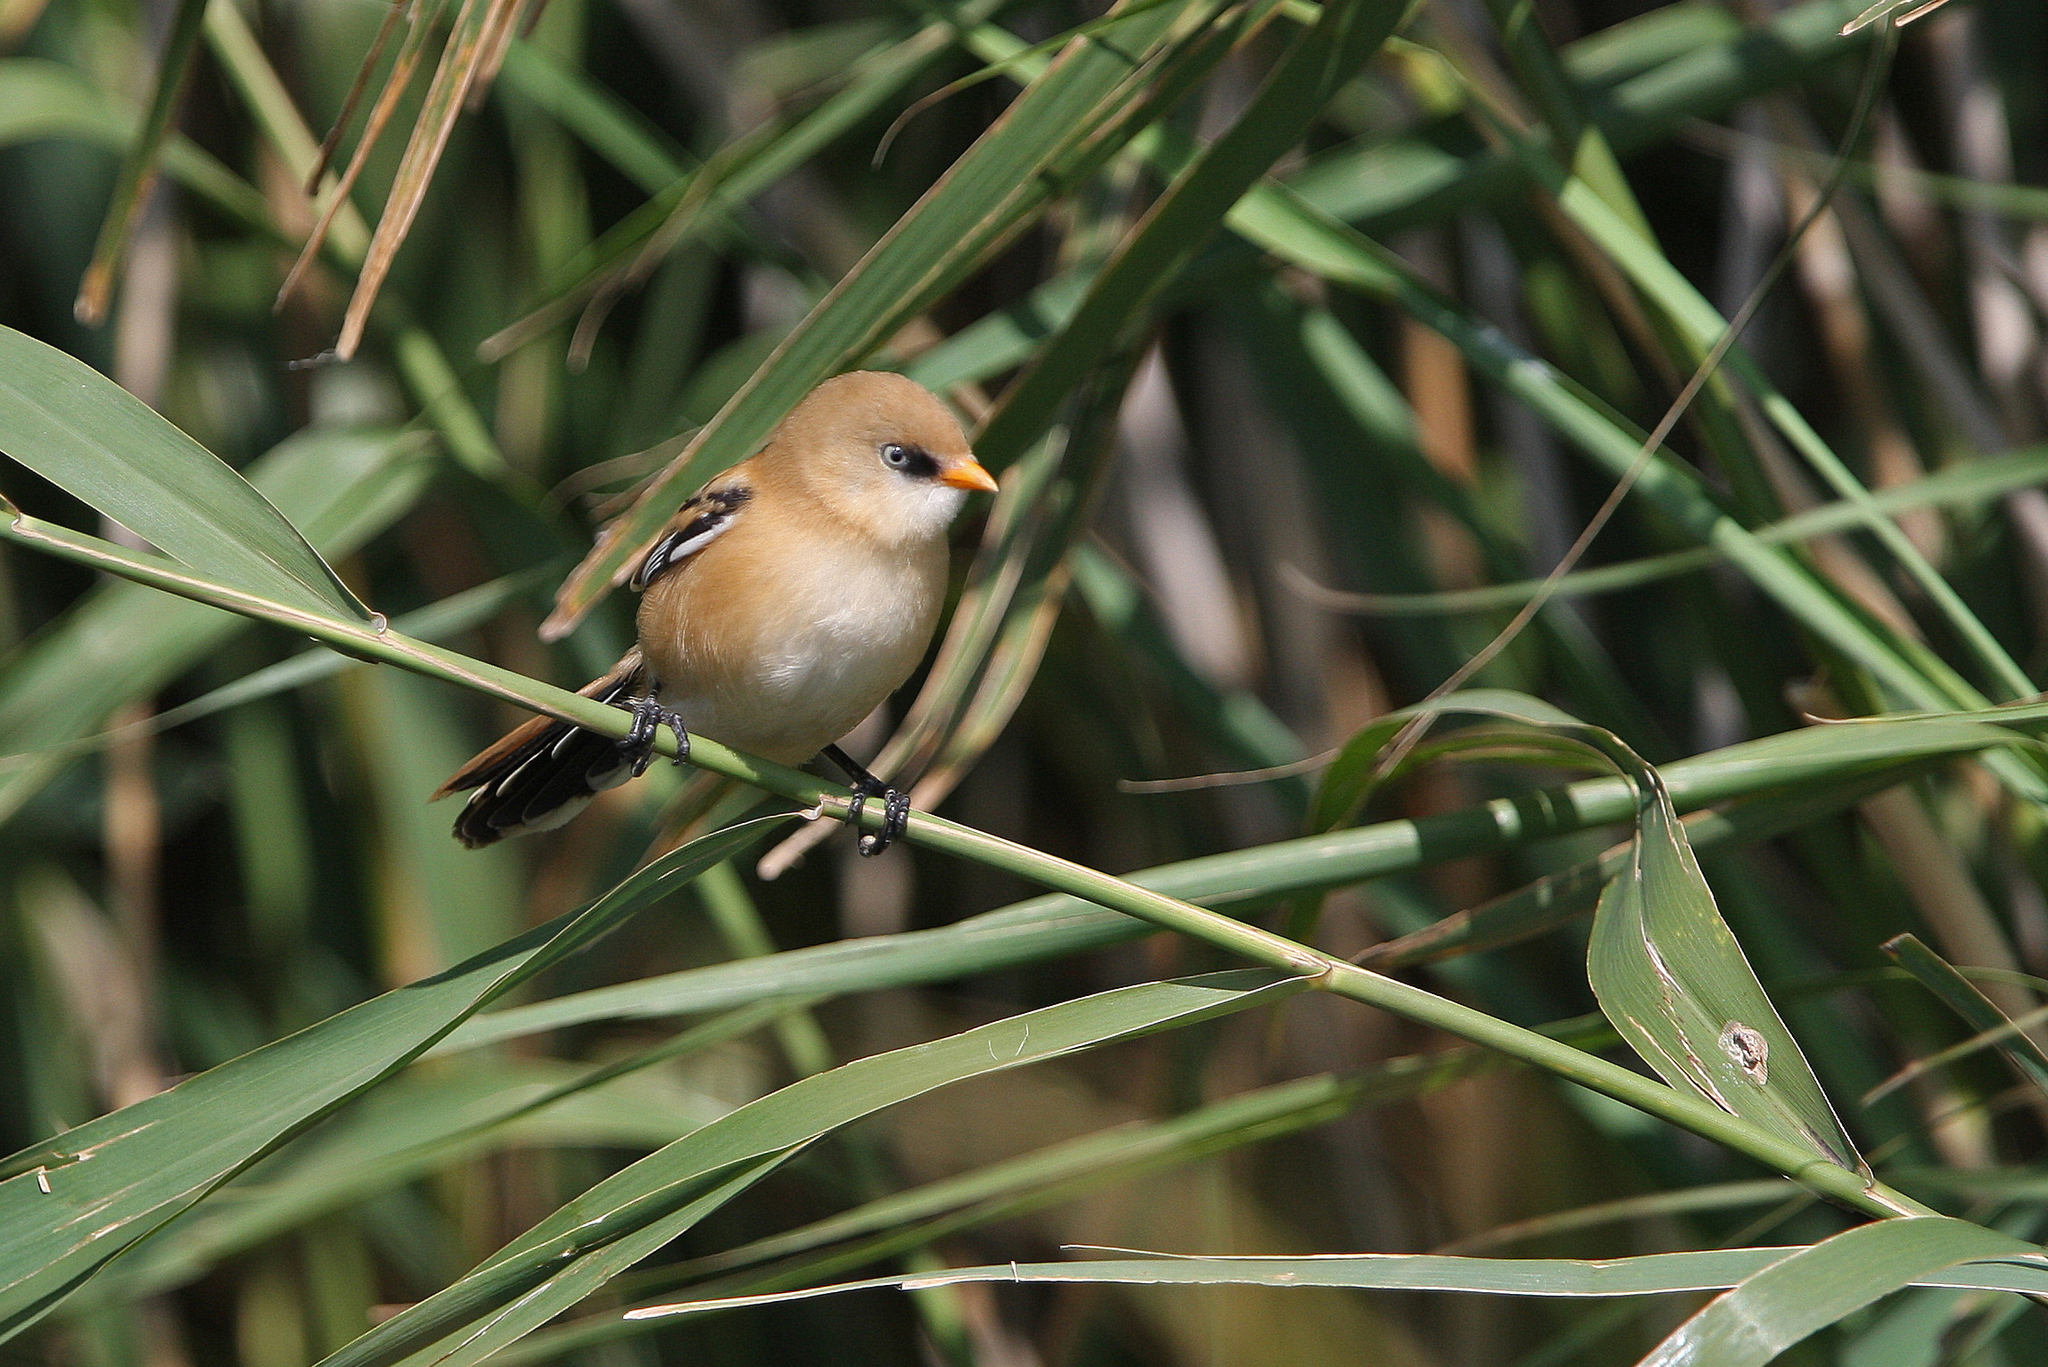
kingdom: Animalia
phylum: Chordata
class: Aves
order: Passeriformes
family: Panuridae
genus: Panurus
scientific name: Panurus biarmicus
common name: Bearded reedling
